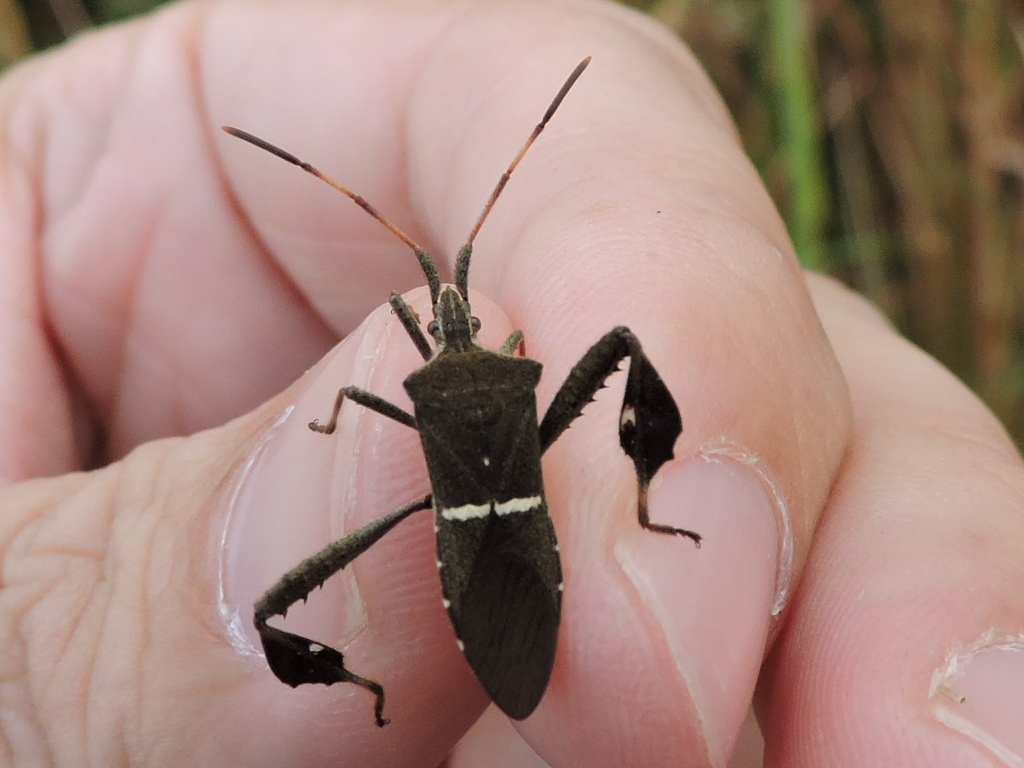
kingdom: Animalia
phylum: Arthropoda
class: Insecta
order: Hemiptera
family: Coreidae
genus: Leptoglossus
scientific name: Leptoglossus phyllopus
